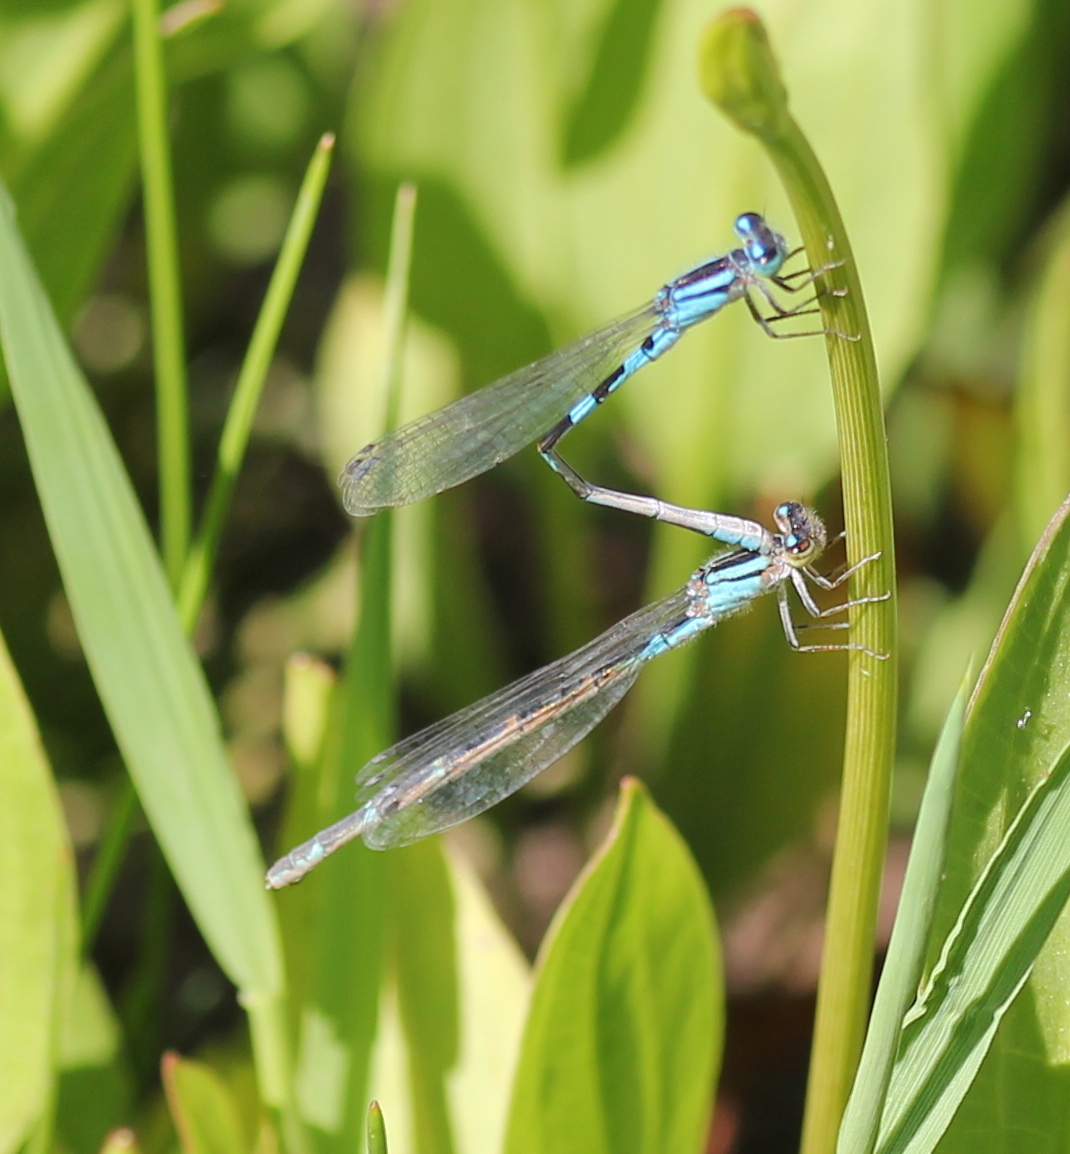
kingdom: Animalia
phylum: Arthropoda
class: Insecta
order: Odonata
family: Coenagrionidae
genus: Enallagma
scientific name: Enallagma carunculatum
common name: Tule bluet
